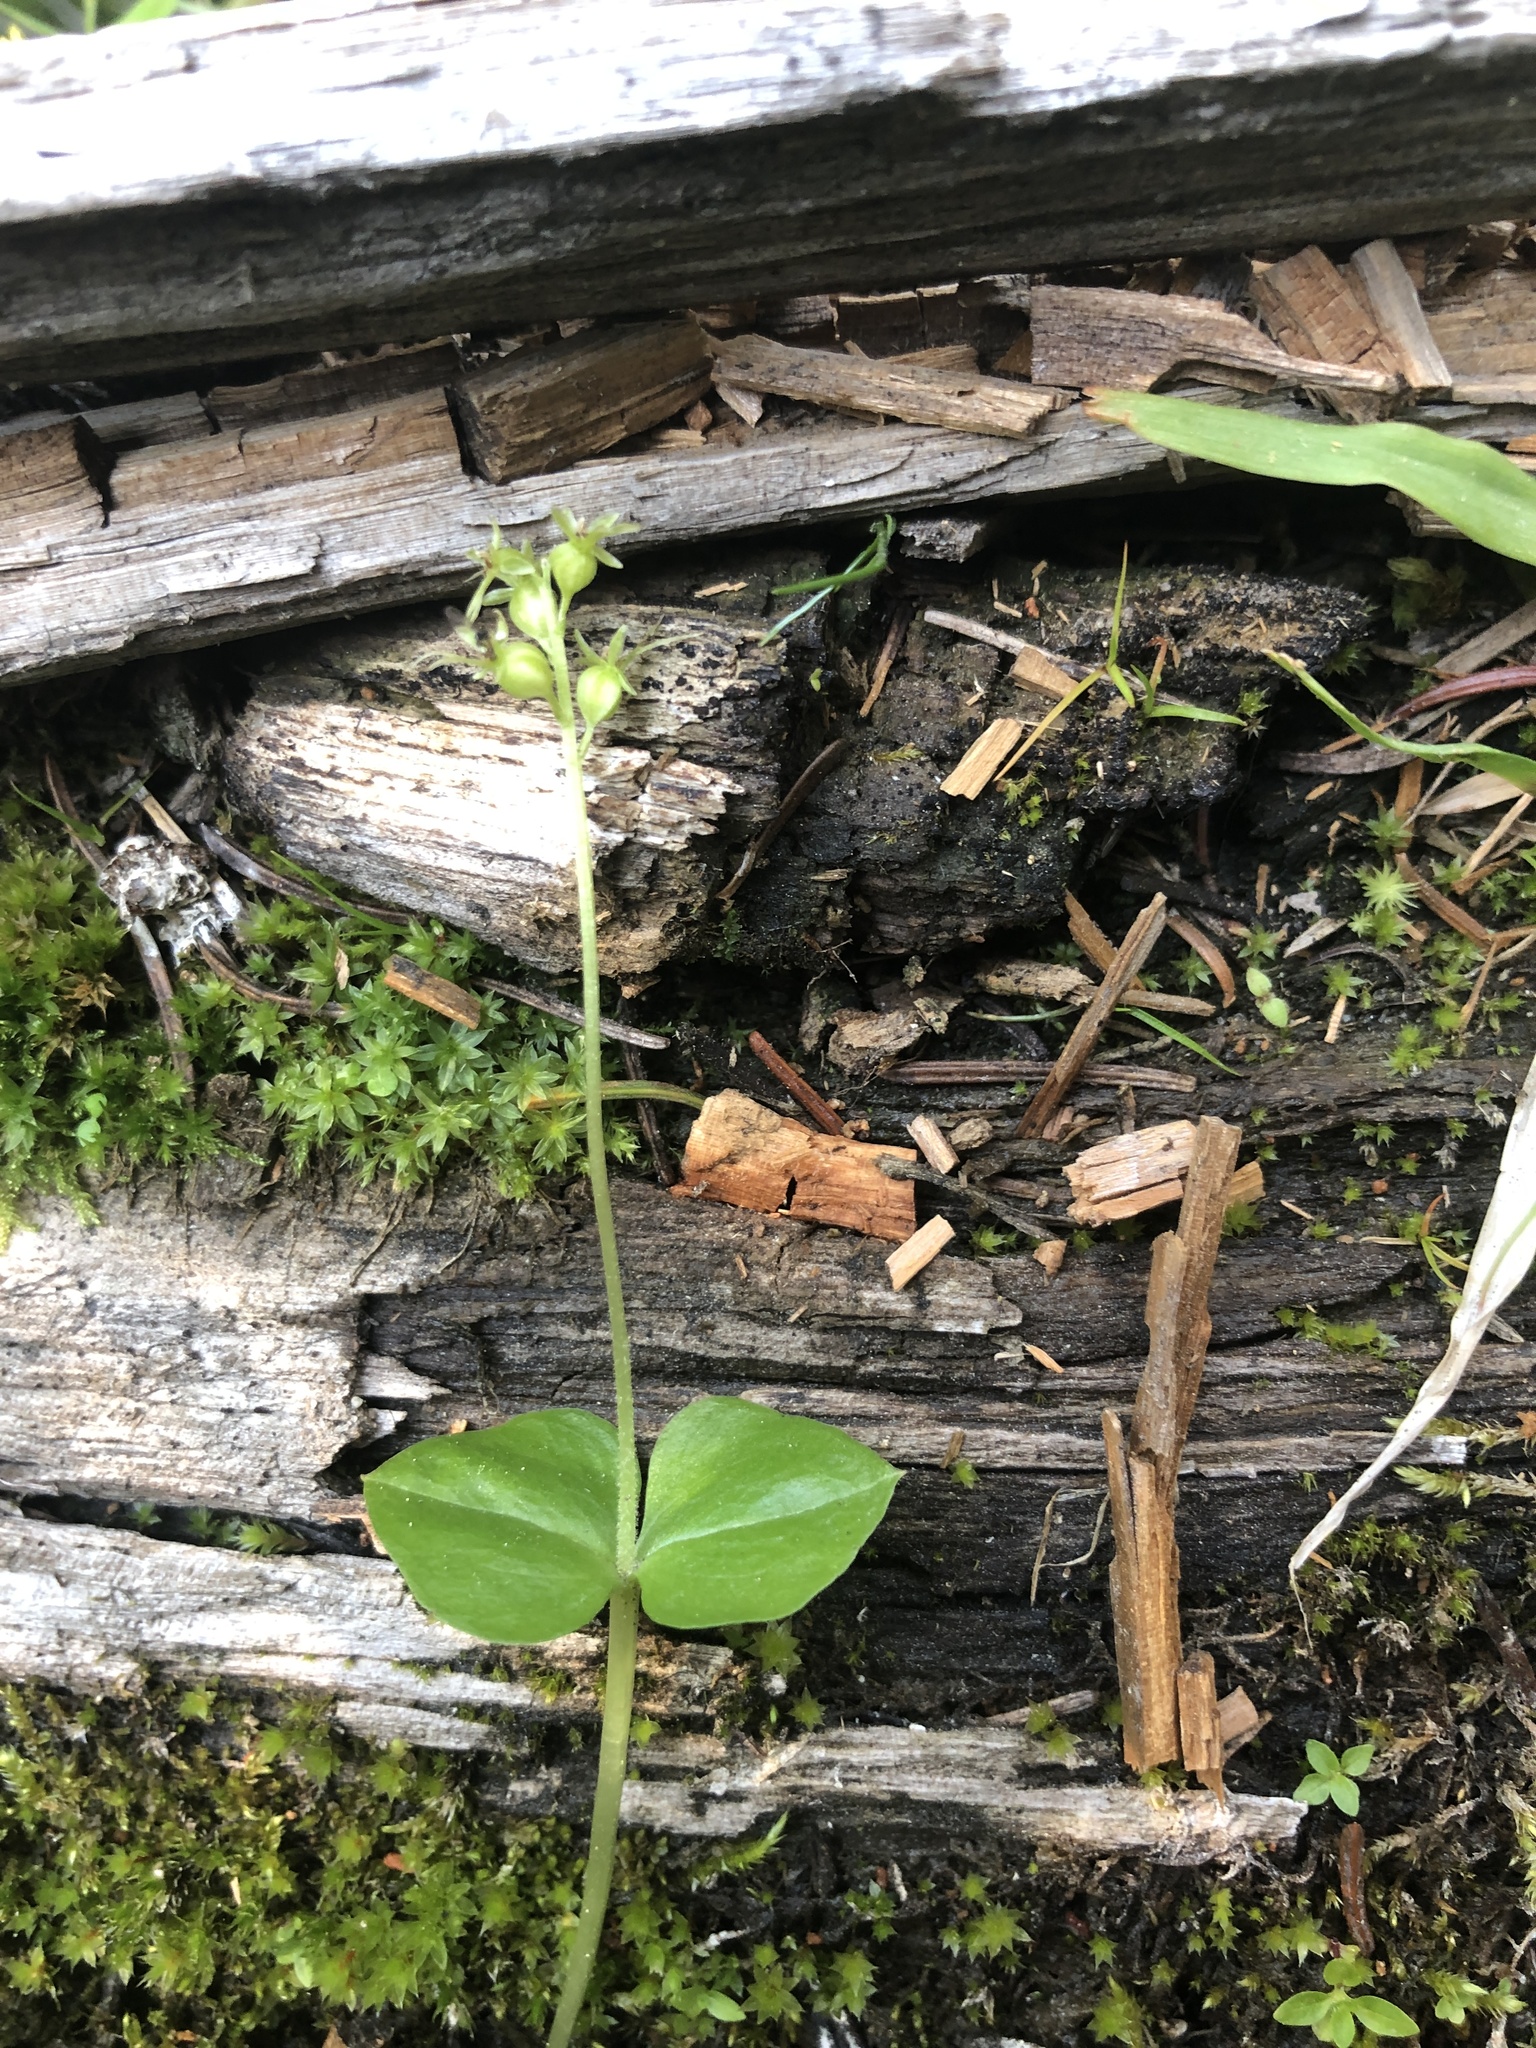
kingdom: Plantae
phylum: Tracheophyta
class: Liliopsida
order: Asparagales
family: Orchidaceae
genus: Neottia
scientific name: Neottia cordata
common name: Lesser twayblade
